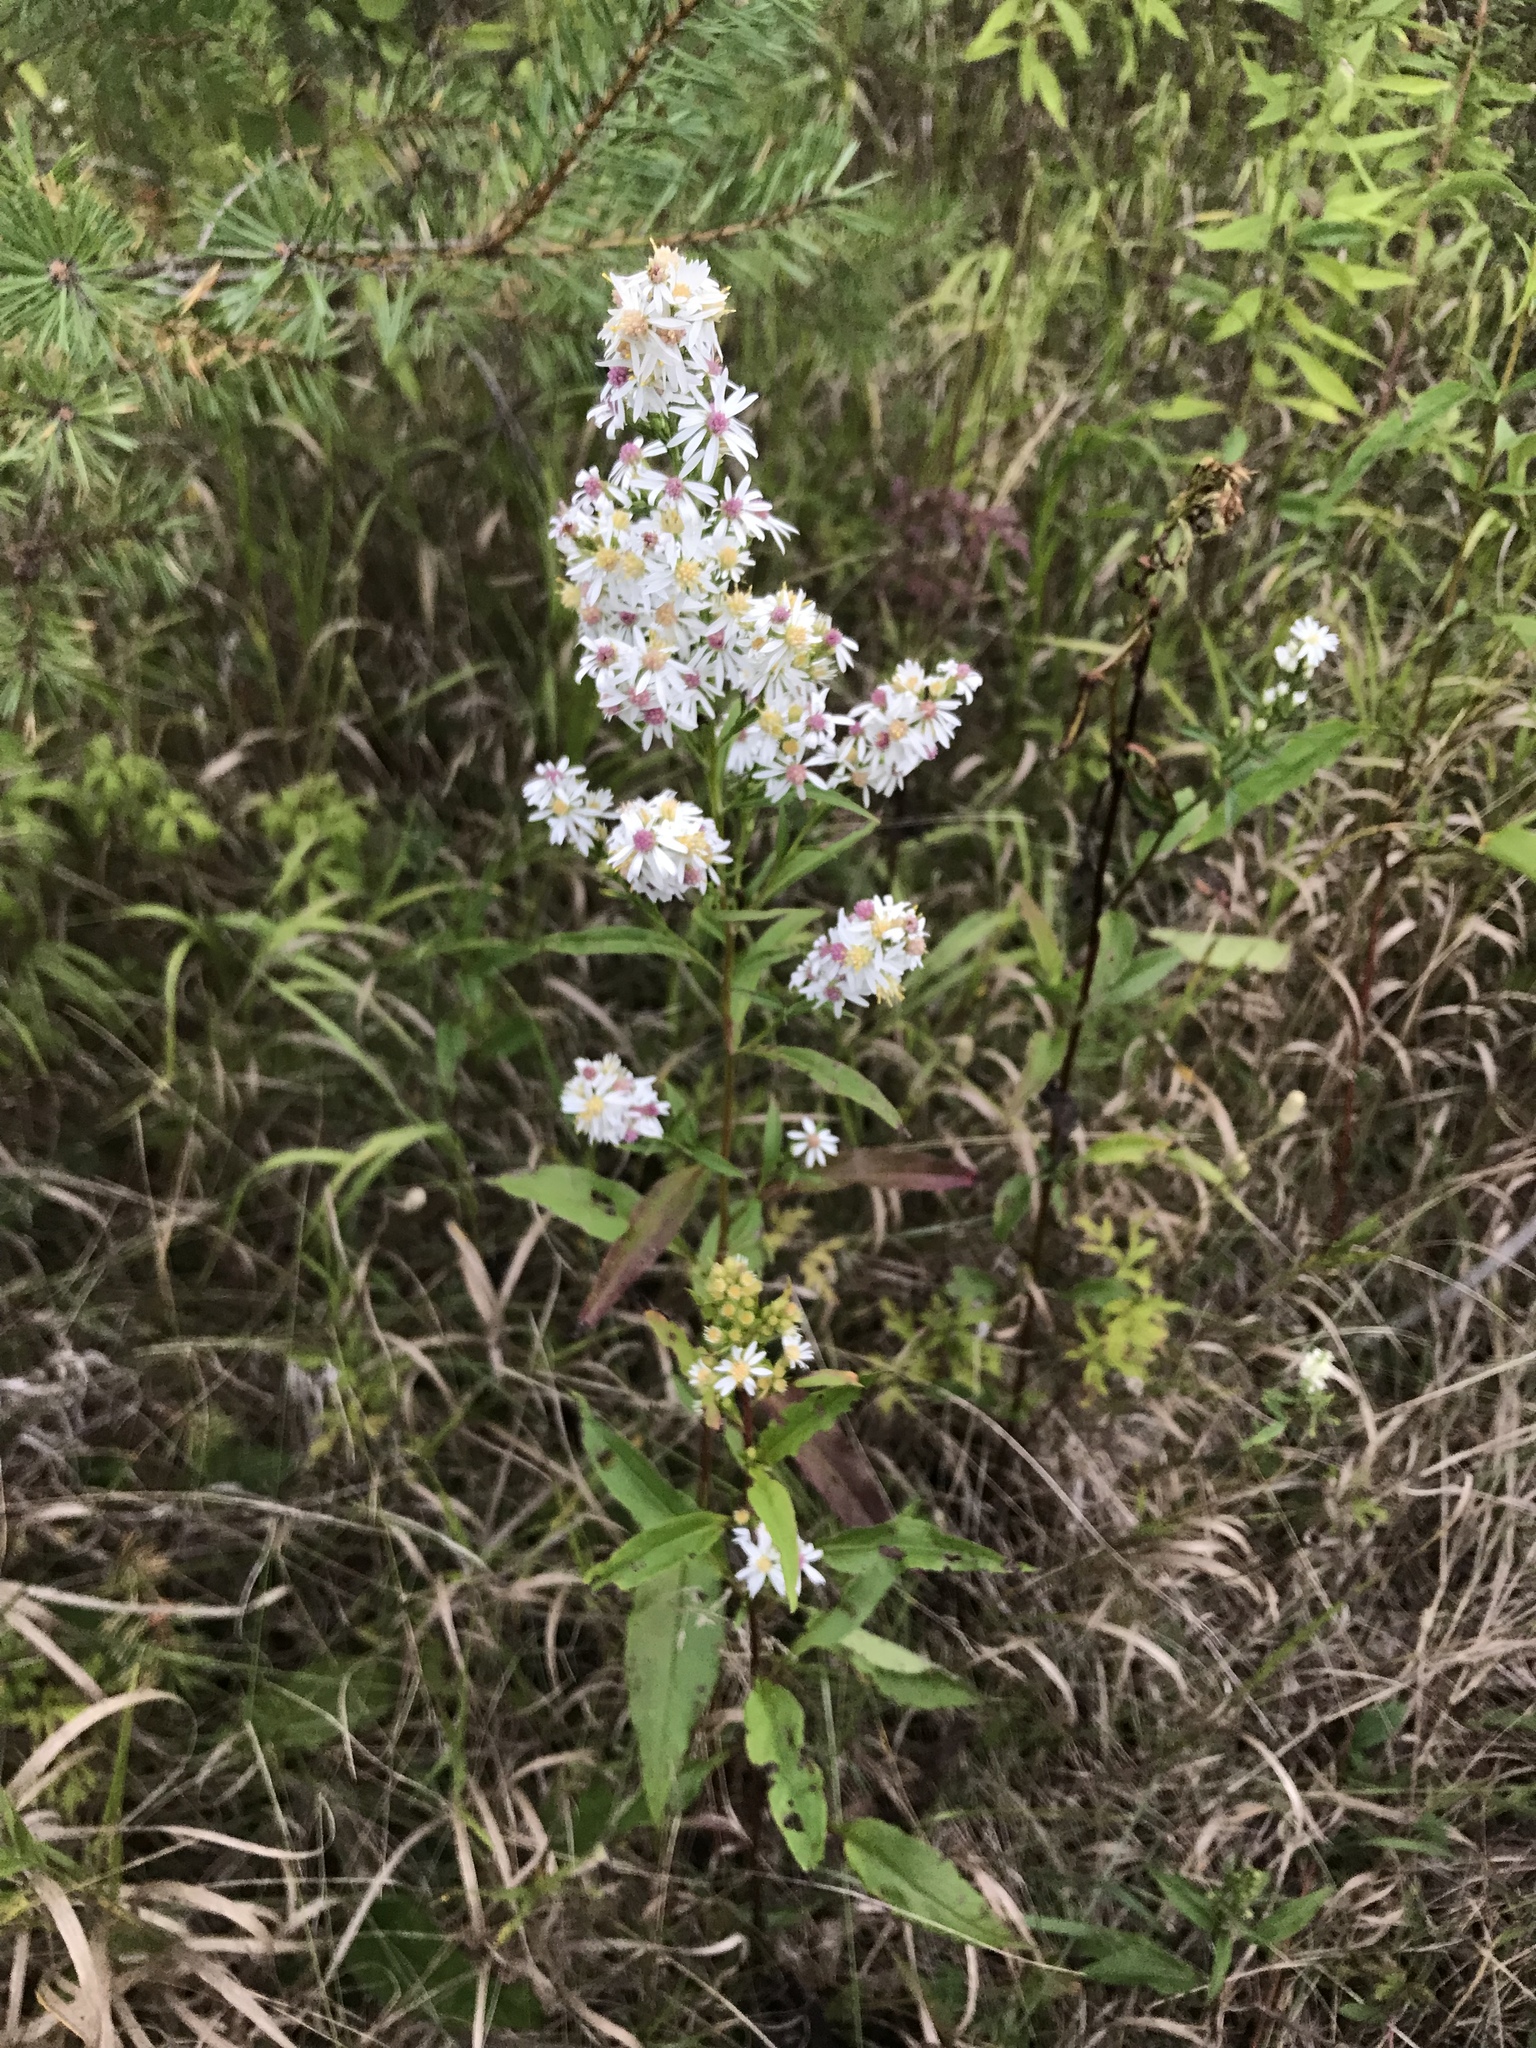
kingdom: Plantae
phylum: Tracheophyta
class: Magnoliopsida
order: Asterales
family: Asteraceae
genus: Symphyotrichum
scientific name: Symphyotrichum urophyllum
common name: Arrow-leaved aster
